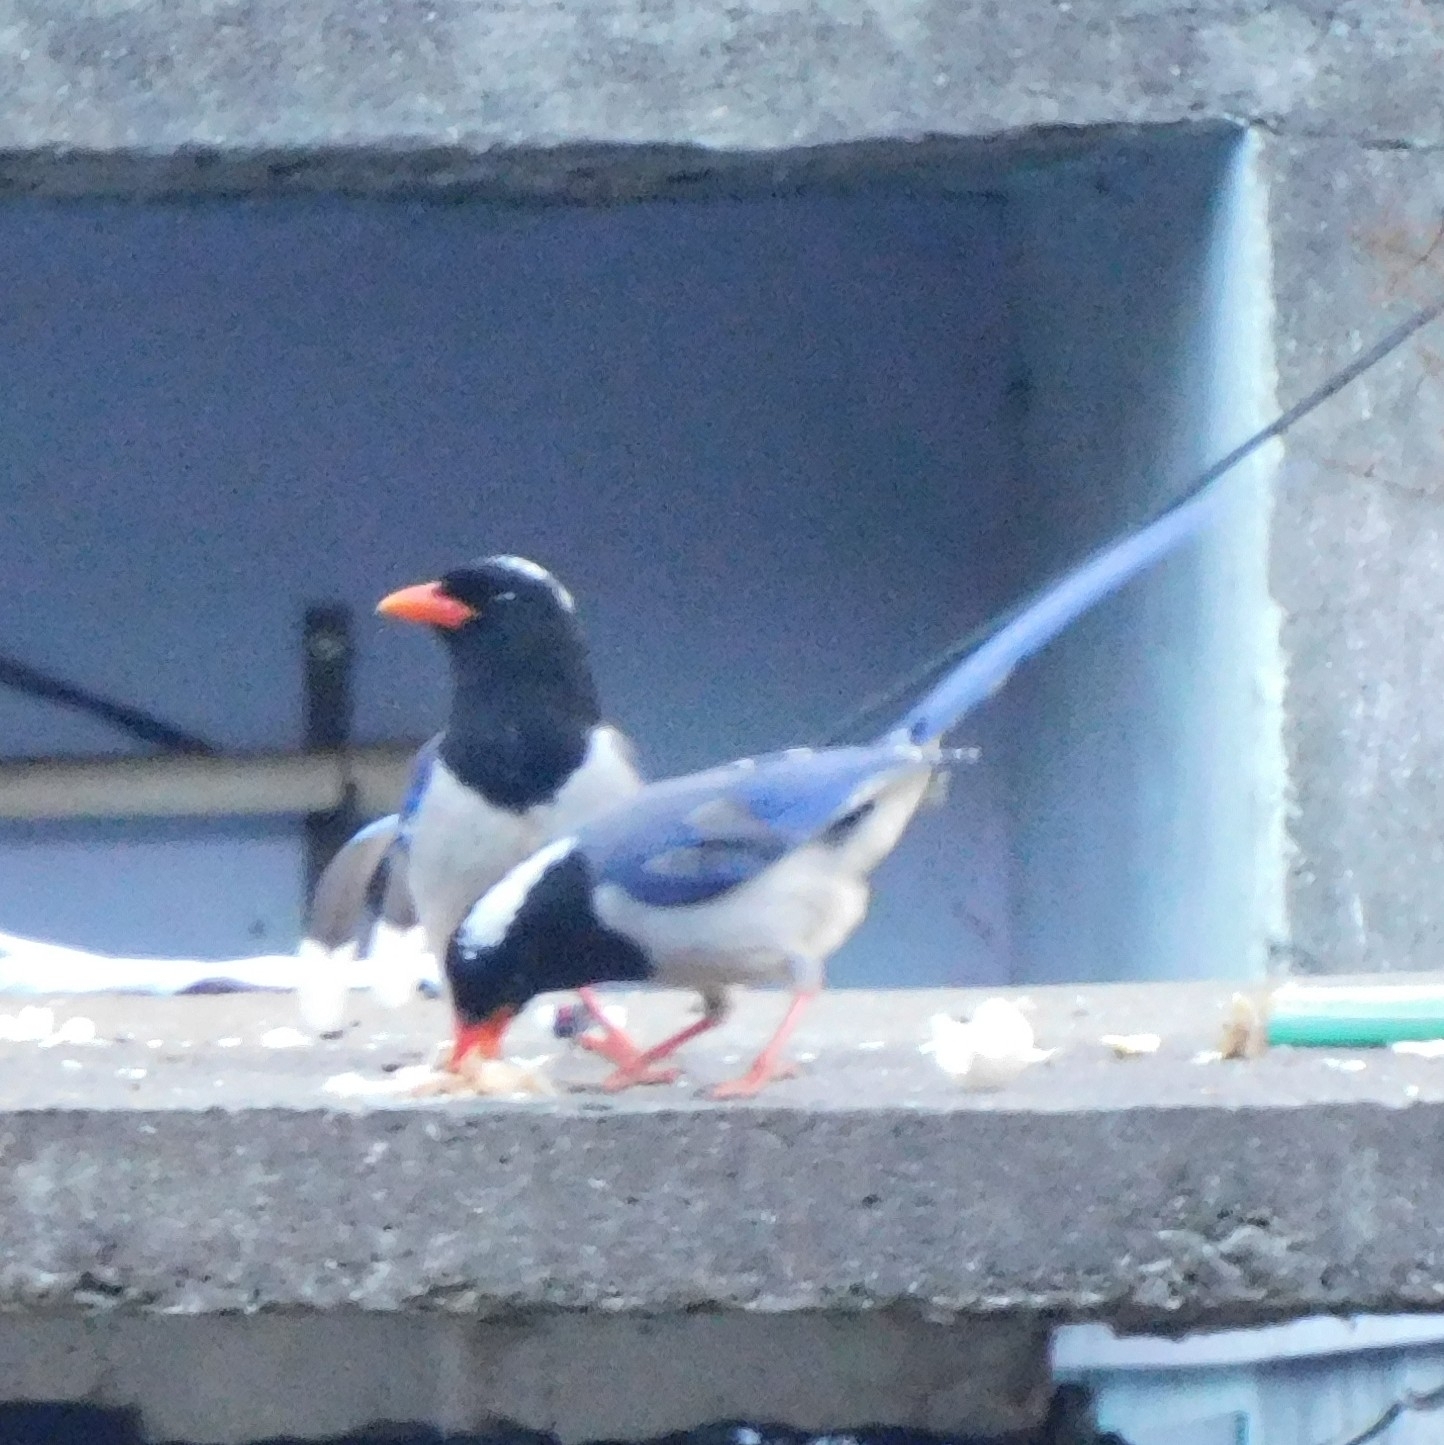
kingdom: Animalia
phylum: Chordata
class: Aves
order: Passeriformes
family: Corvidae
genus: Urocissa
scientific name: Urocissa erythroryncha
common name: Red-billed blue magpie
